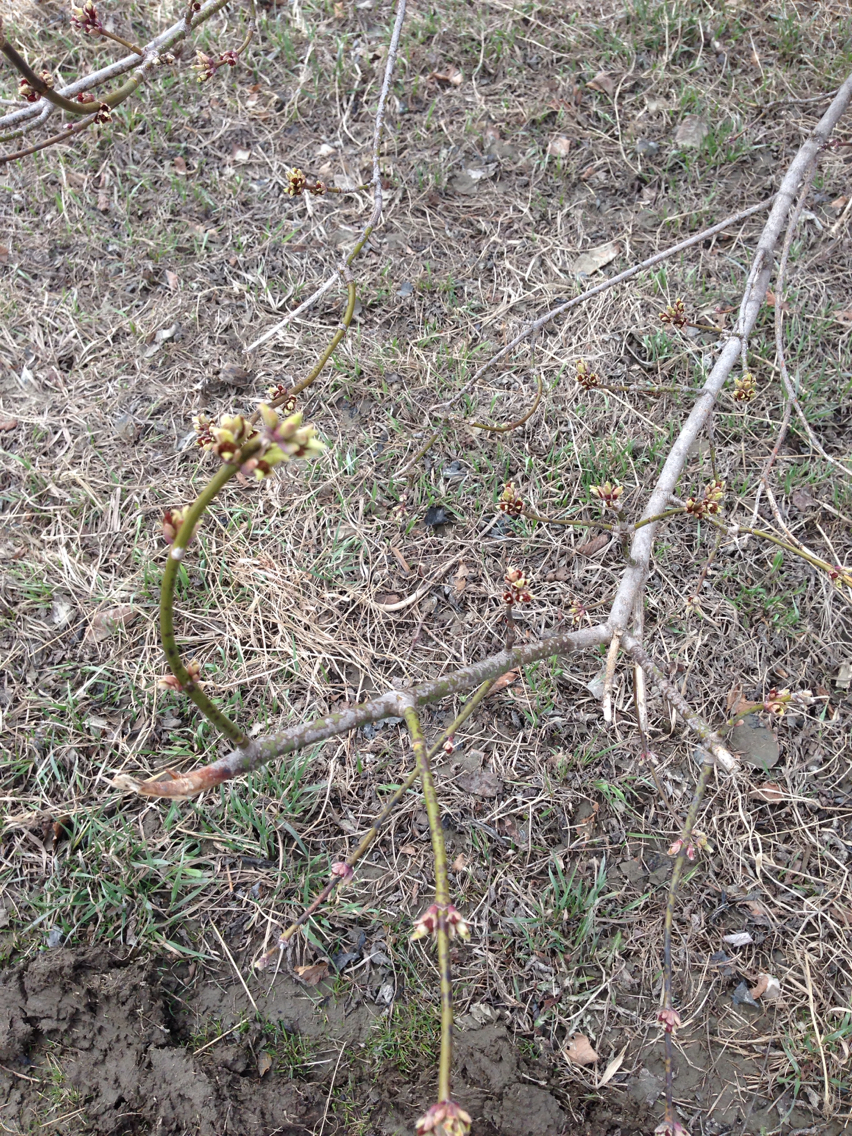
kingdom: Plantae
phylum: Tracheophyta
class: Magnoliopsida
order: Sapindales
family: Sapindaceae
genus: Acer
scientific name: Acer negundo
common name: Ashleaf maple
